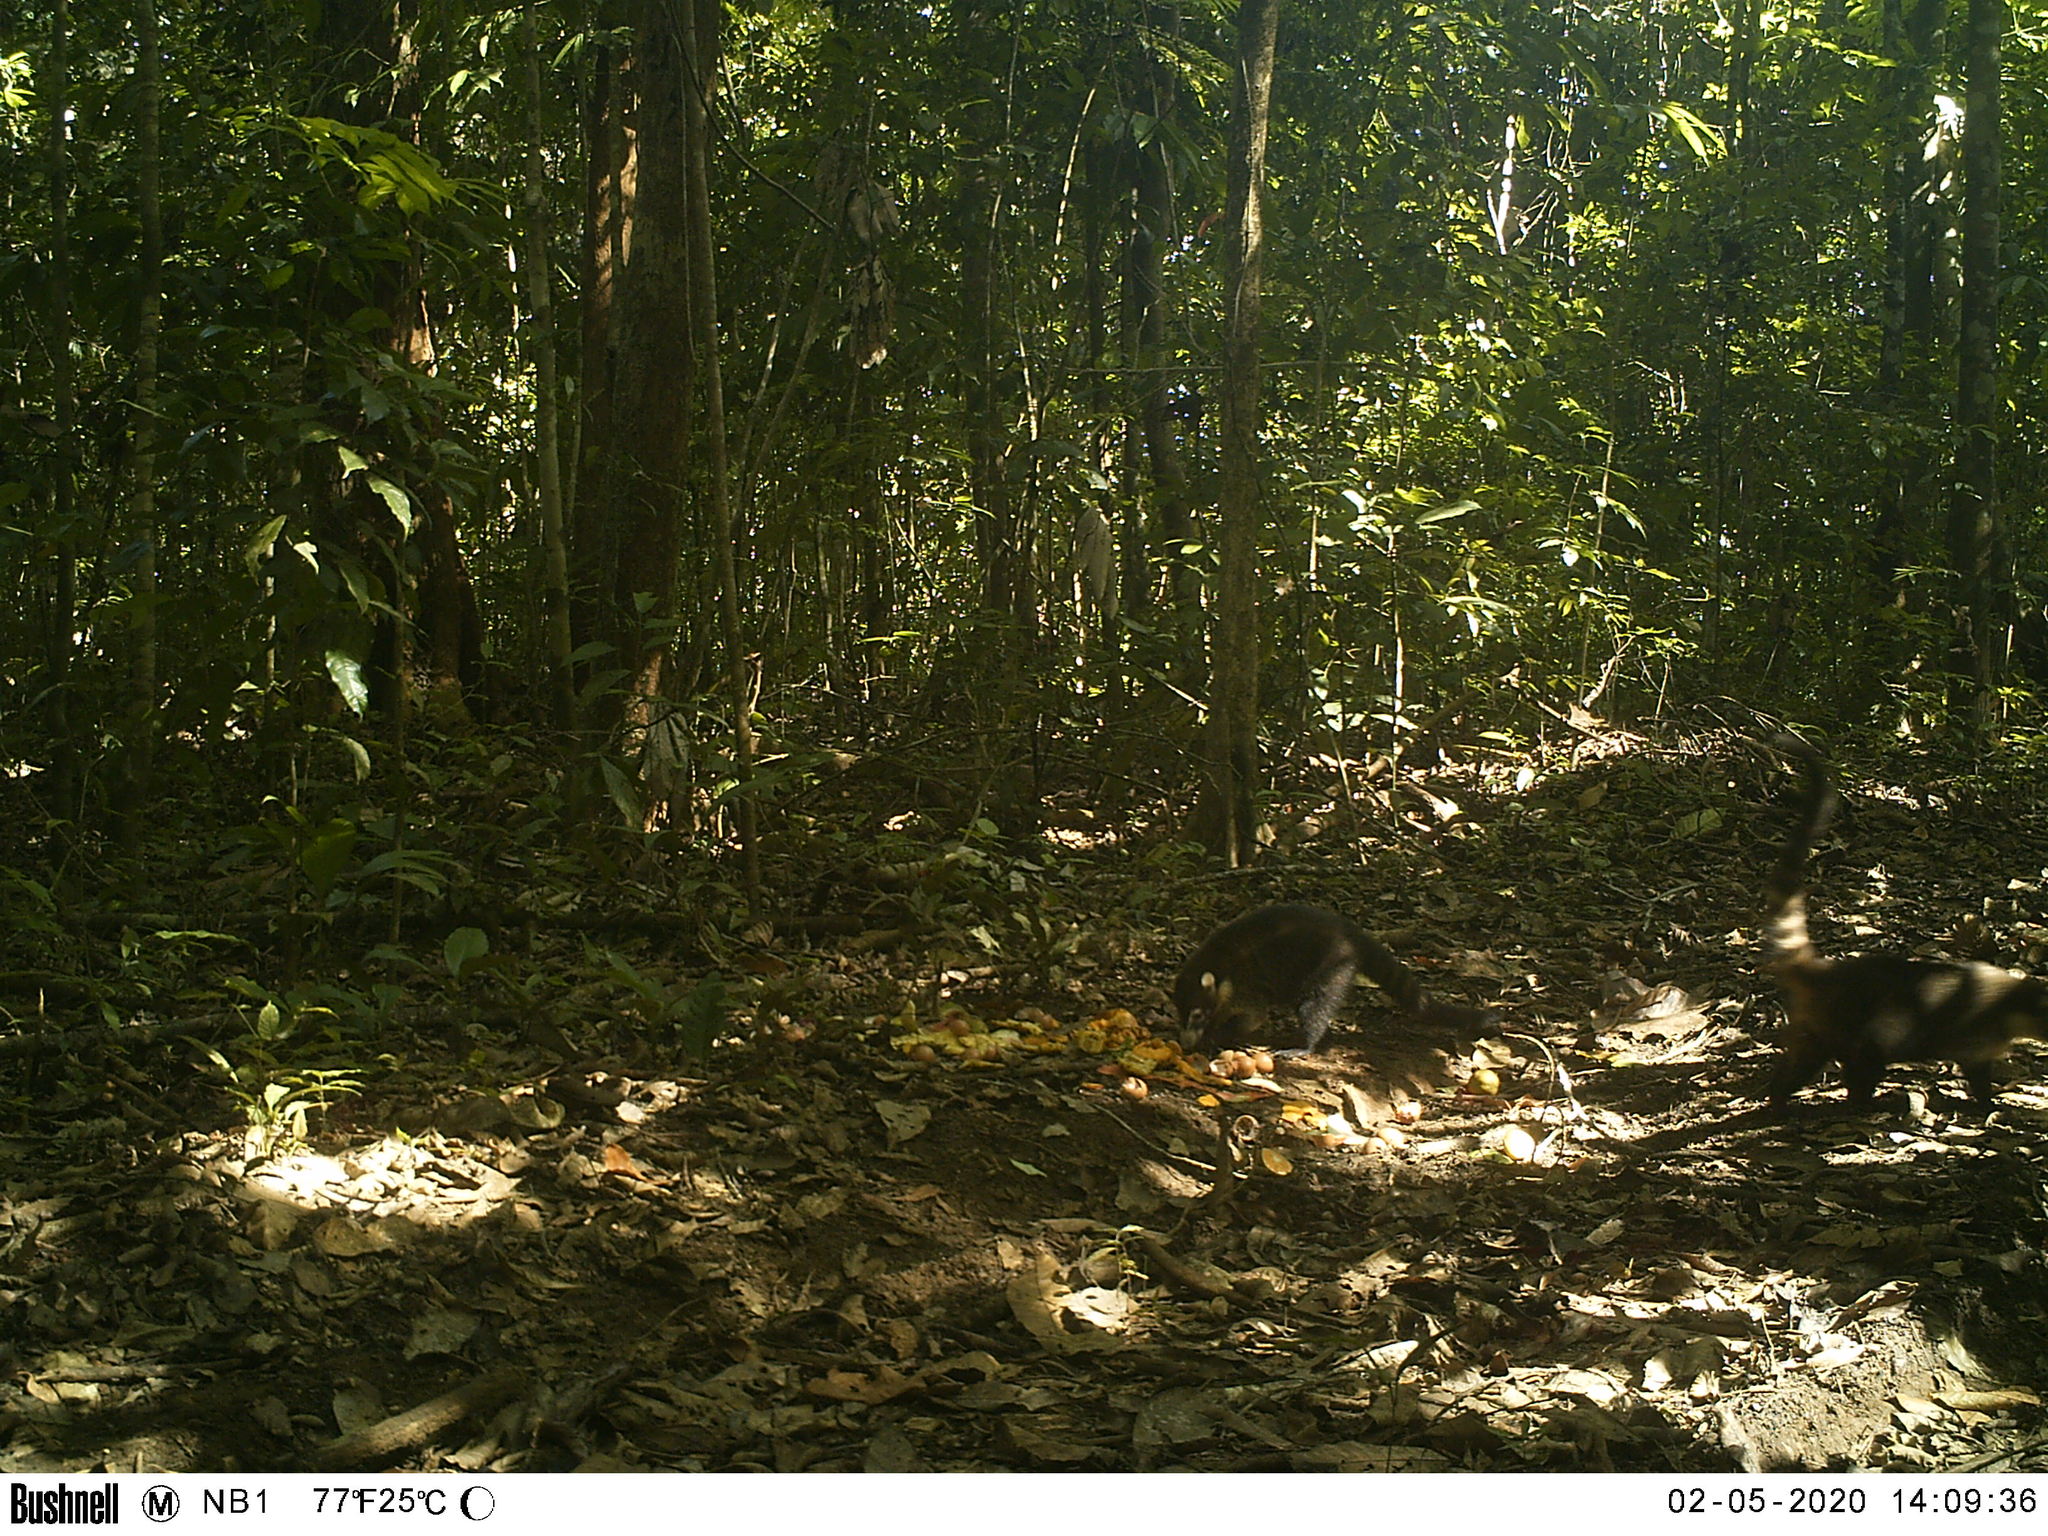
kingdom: Animalia
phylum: Chordata
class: Mammalia
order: Carnivora
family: Procyonidae
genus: Nasua
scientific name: Nasua narica
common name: White-nosed coati
